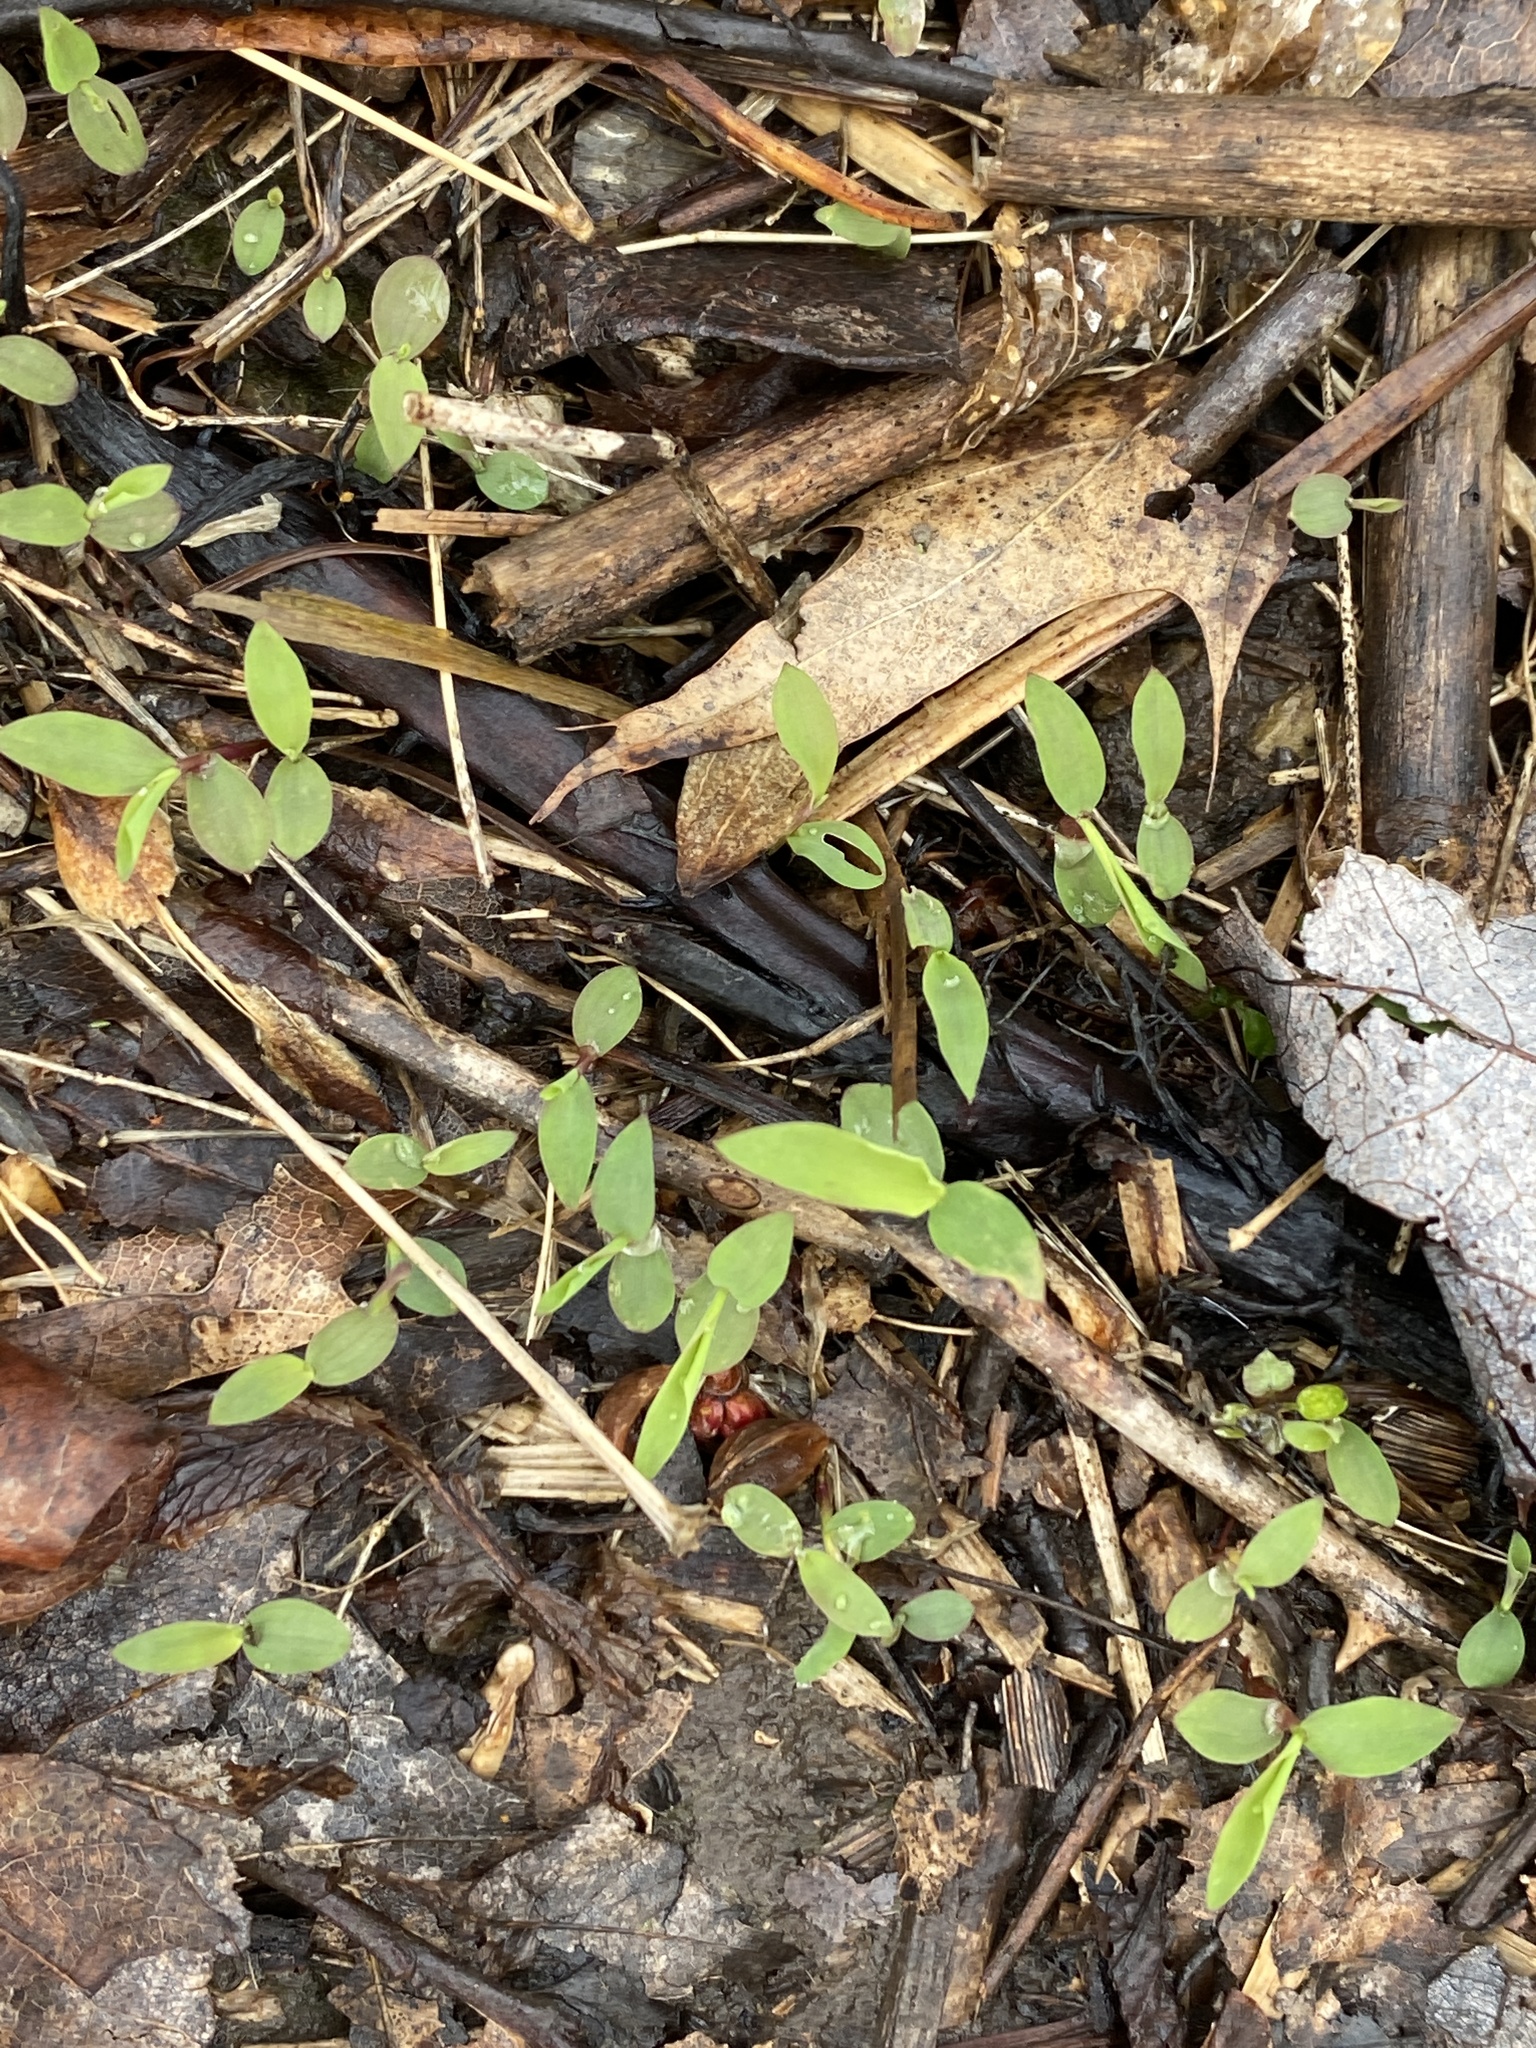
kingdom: Plantae
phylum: Tracheophyta
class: Liliopsida
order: Poales
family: Poaceae
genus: Microstegium
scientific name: Microstegium vimineum
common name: Japanese stiltgrass
